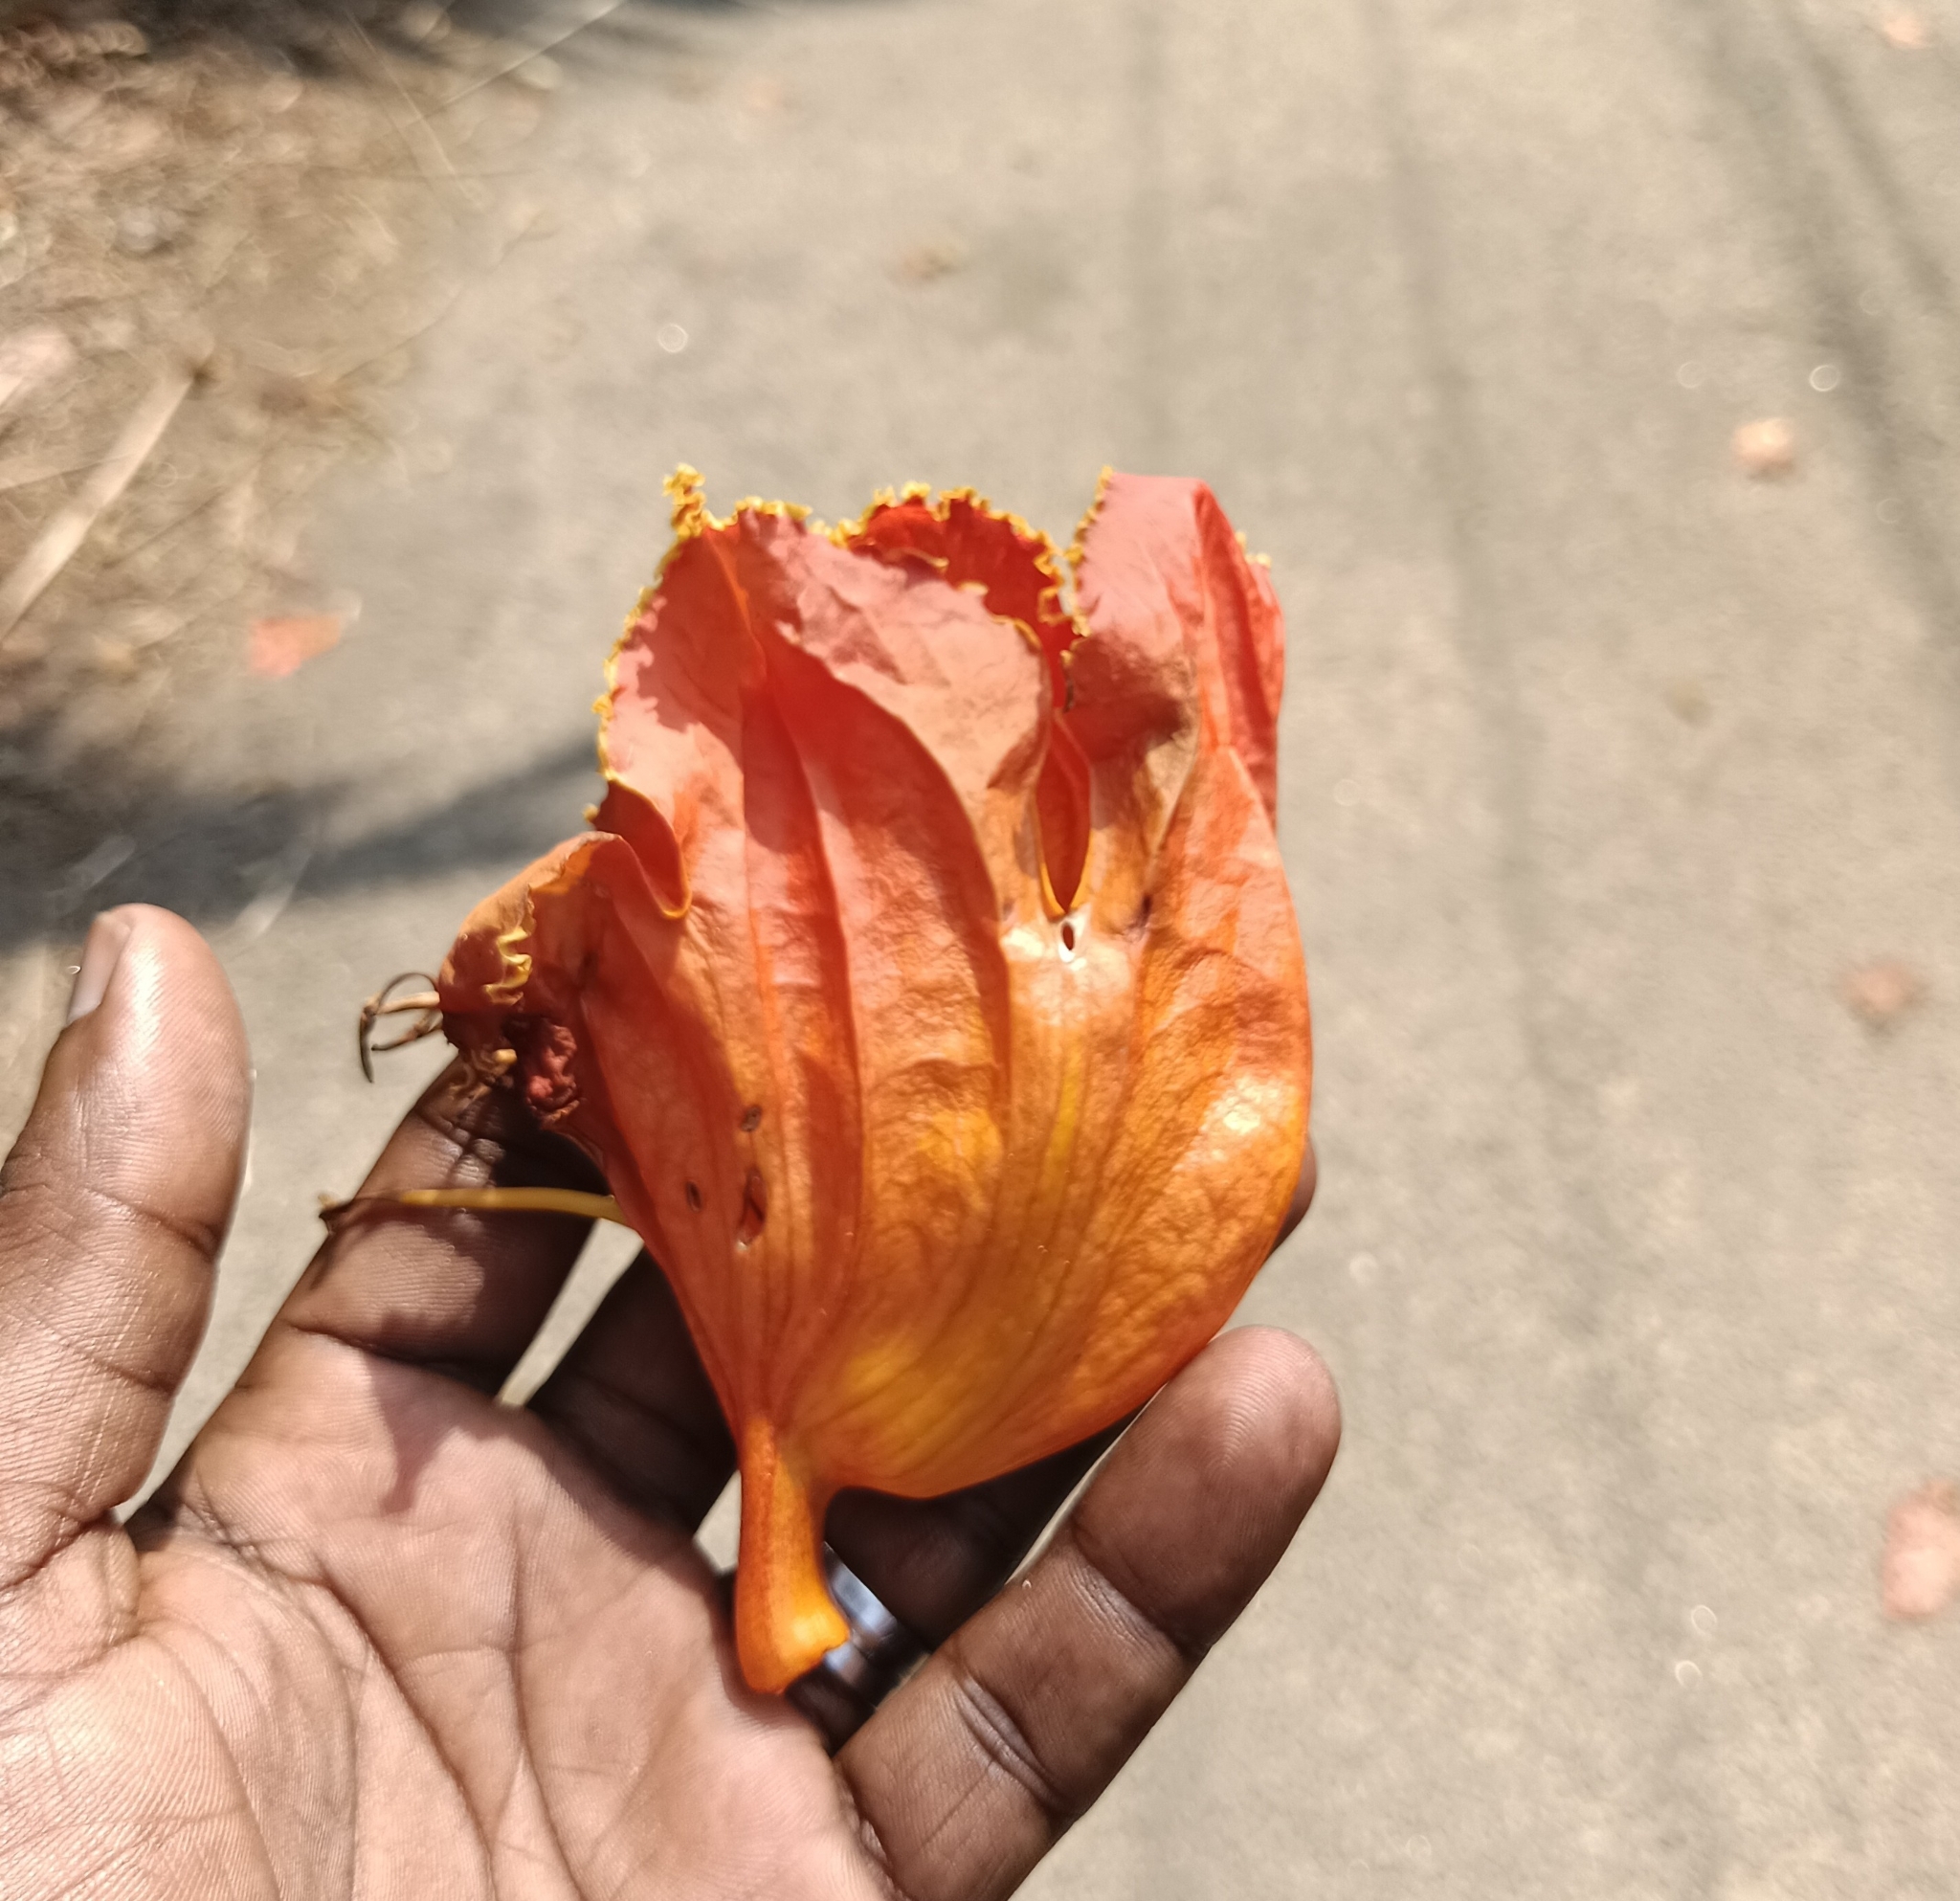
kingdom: Plantae
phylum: Tracheophyta
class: Magnoliopsida
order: Lamiales
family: Bignoniaceae
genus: Spathodea
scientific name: Spathodea campanulata
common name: African tuliptree
